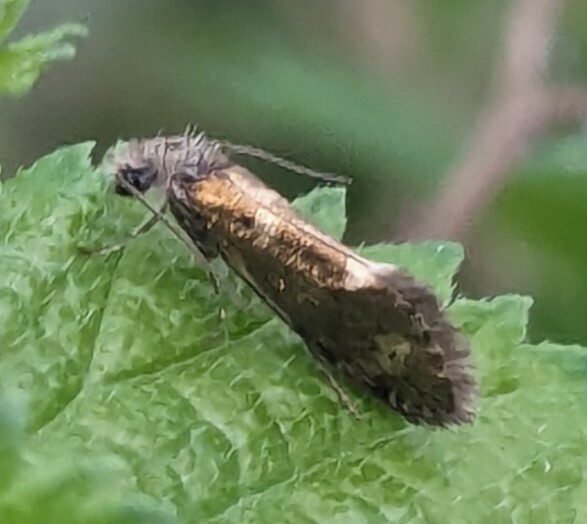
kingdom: Animalia
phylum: Arthropoda
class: Insecta
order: Lepidoptera
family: Eriocraniidae
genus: Dyseriocrania
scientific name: Dyseriocrania subpurpurella
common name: Common oak purple
